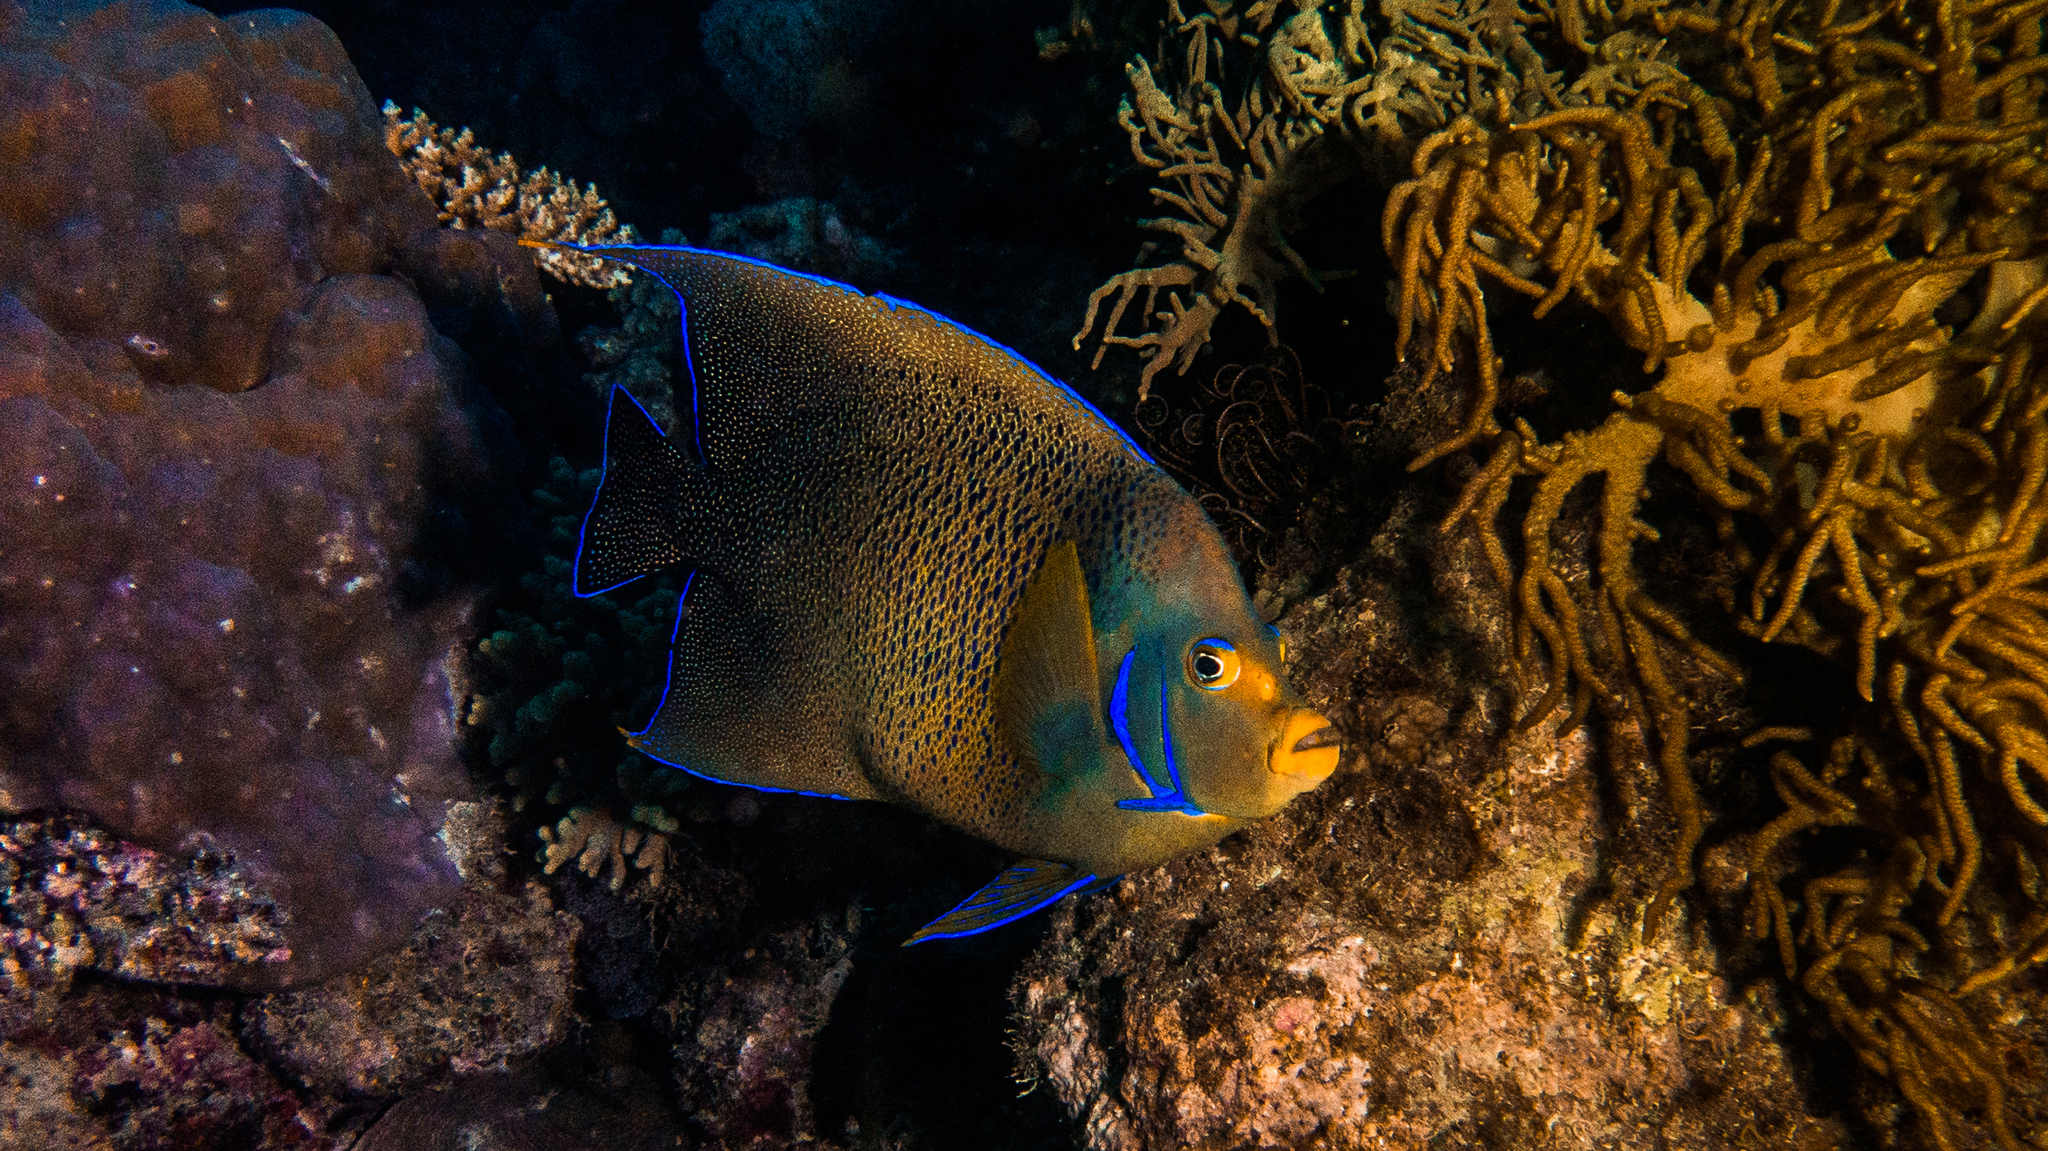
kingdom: Animalia
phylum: Chordata
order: Perciformes
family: Pomacanthidae
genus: Pomacanthus
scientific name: Pomacanthus semicirculatus
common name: Semicircle angelfish
